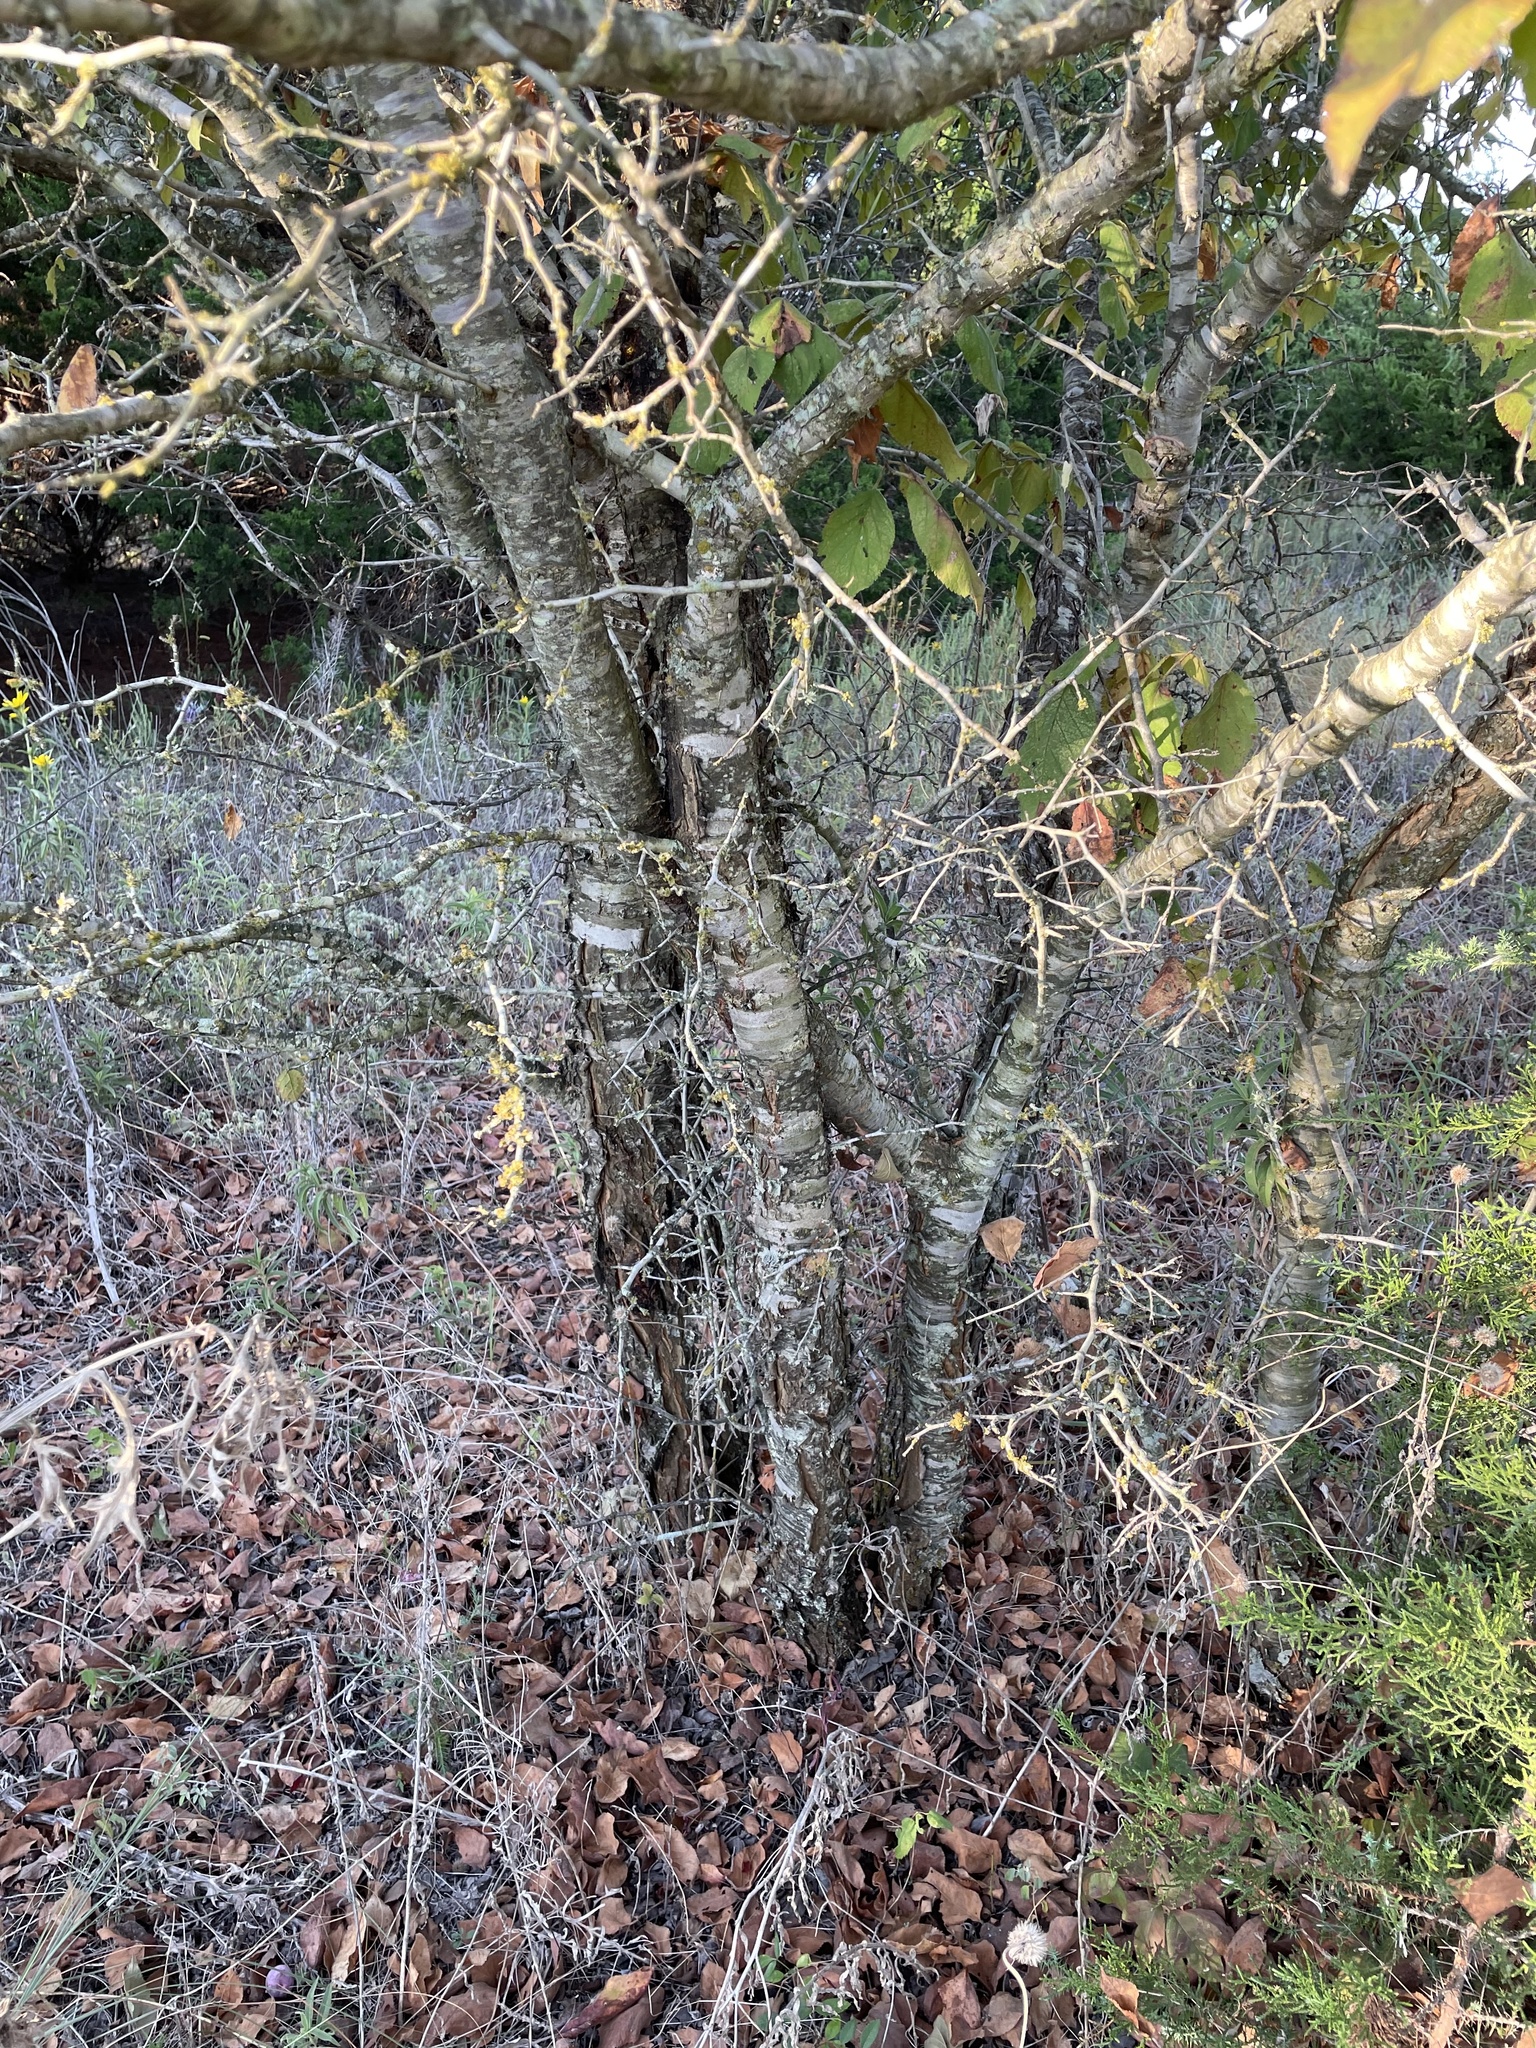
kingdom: Plantae
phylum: Tracheophyta
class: Magnoliopsida
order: Rosales
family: Rosaceae
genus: Prunus
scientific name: Prunus mexicana
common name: Mexican plum
